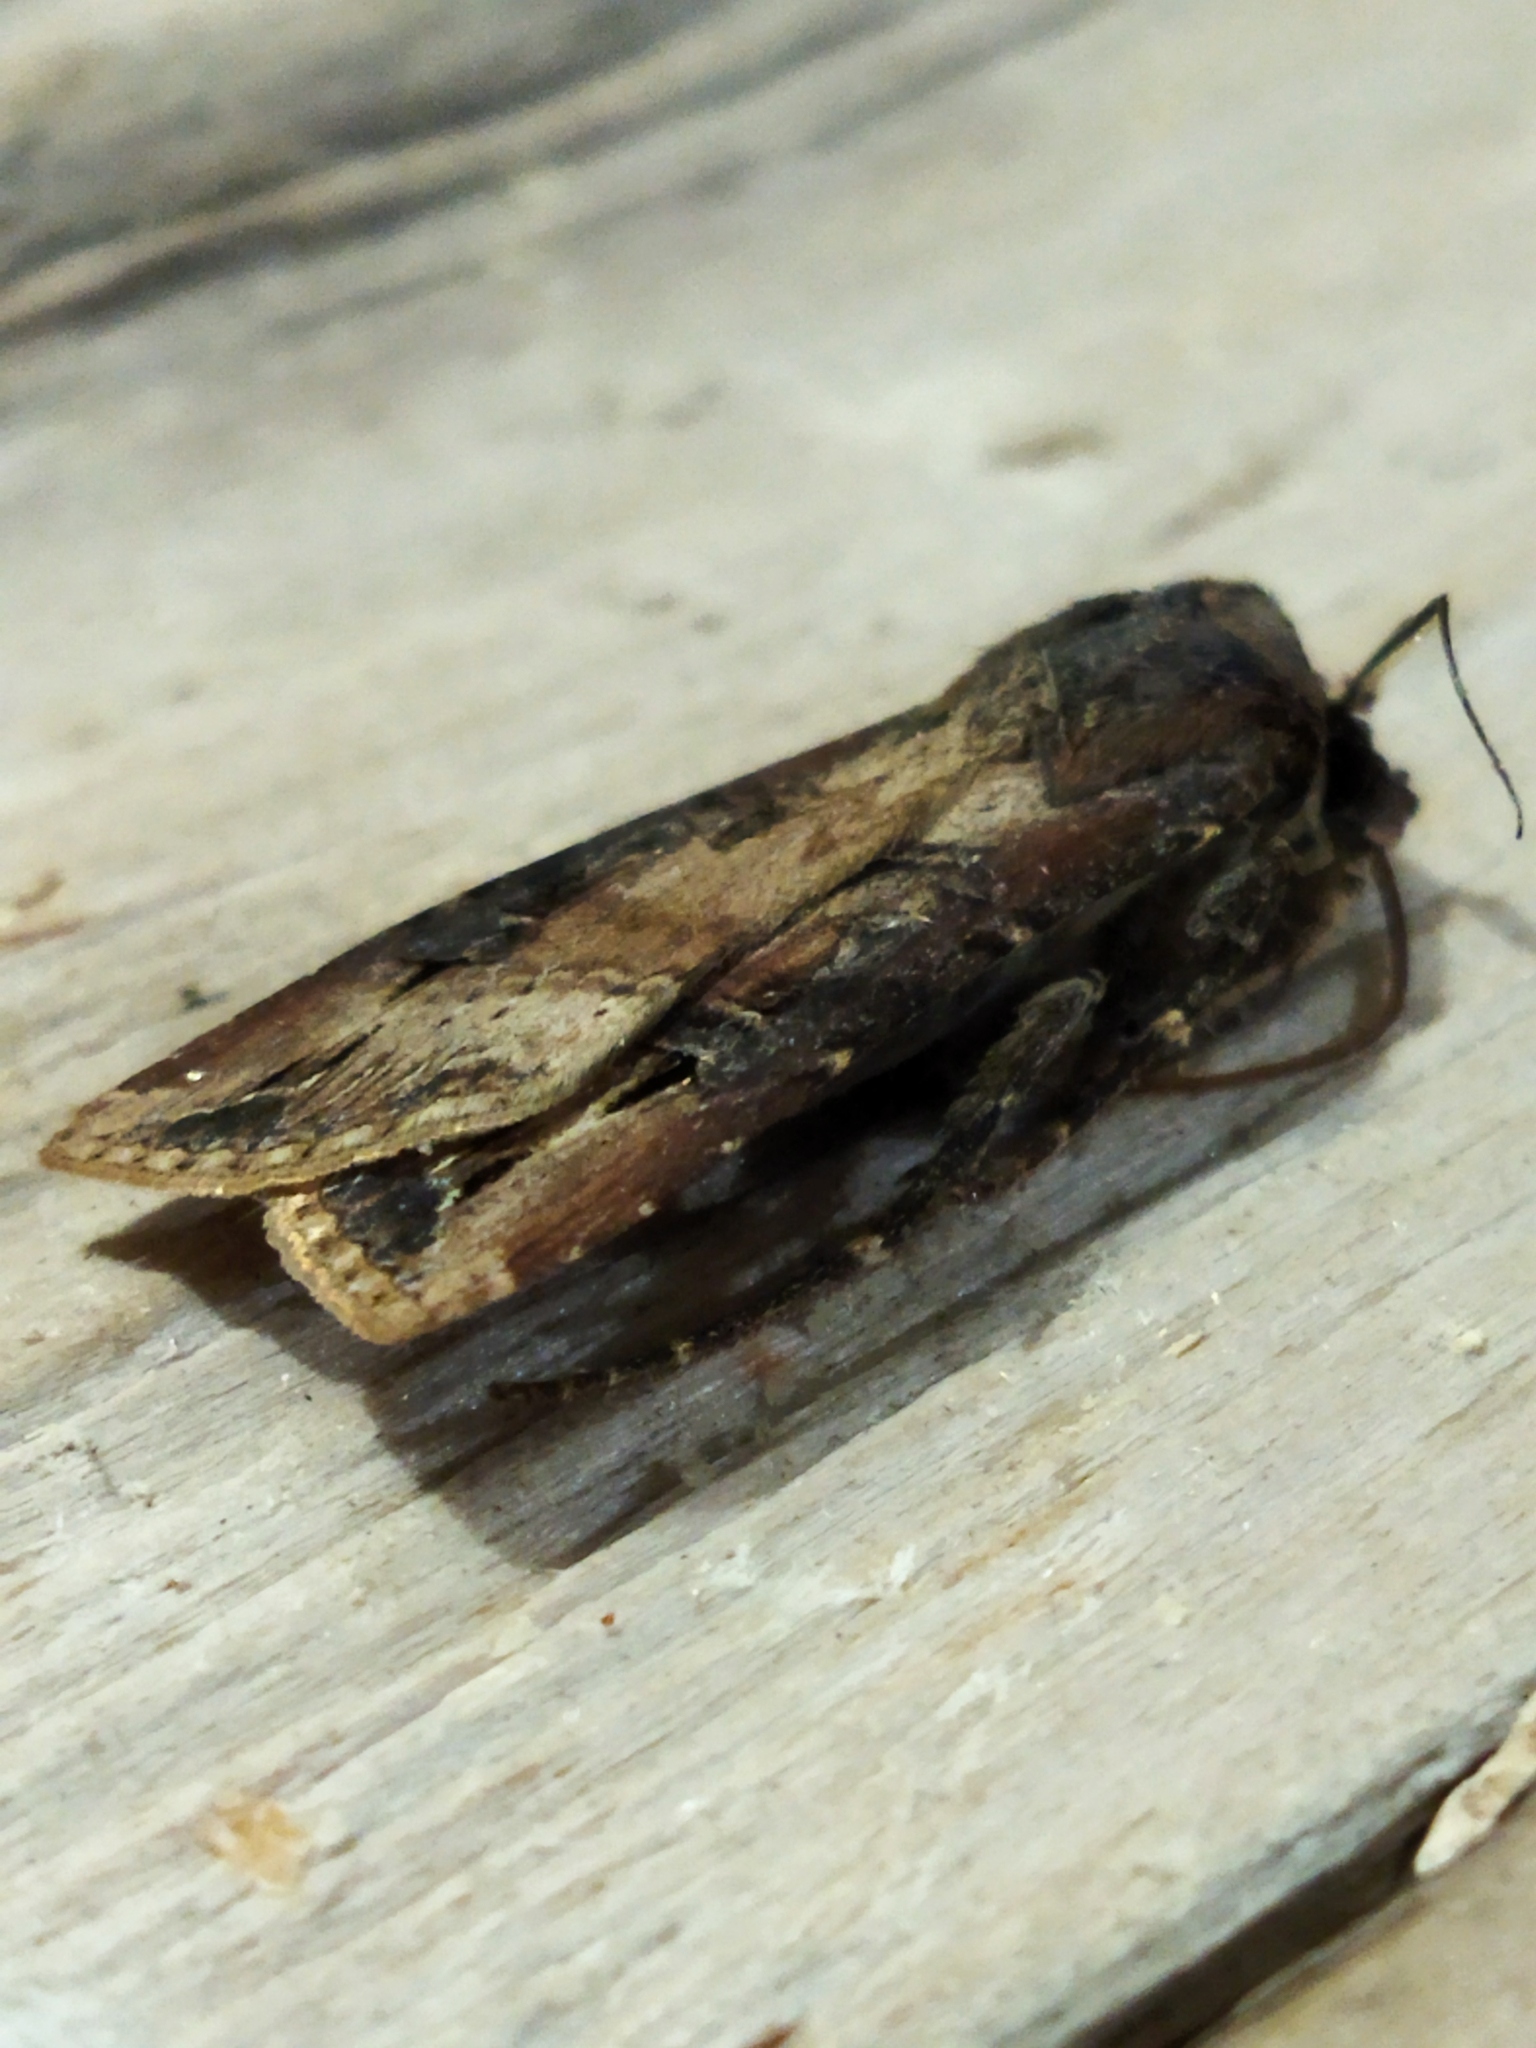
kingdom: Animalia
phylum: Arthropoda
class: Insecta
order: Lepidoptera
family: Noctuidae
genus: Agrotis
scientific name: Agrotis ipsilon
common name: Dark sword-grass
